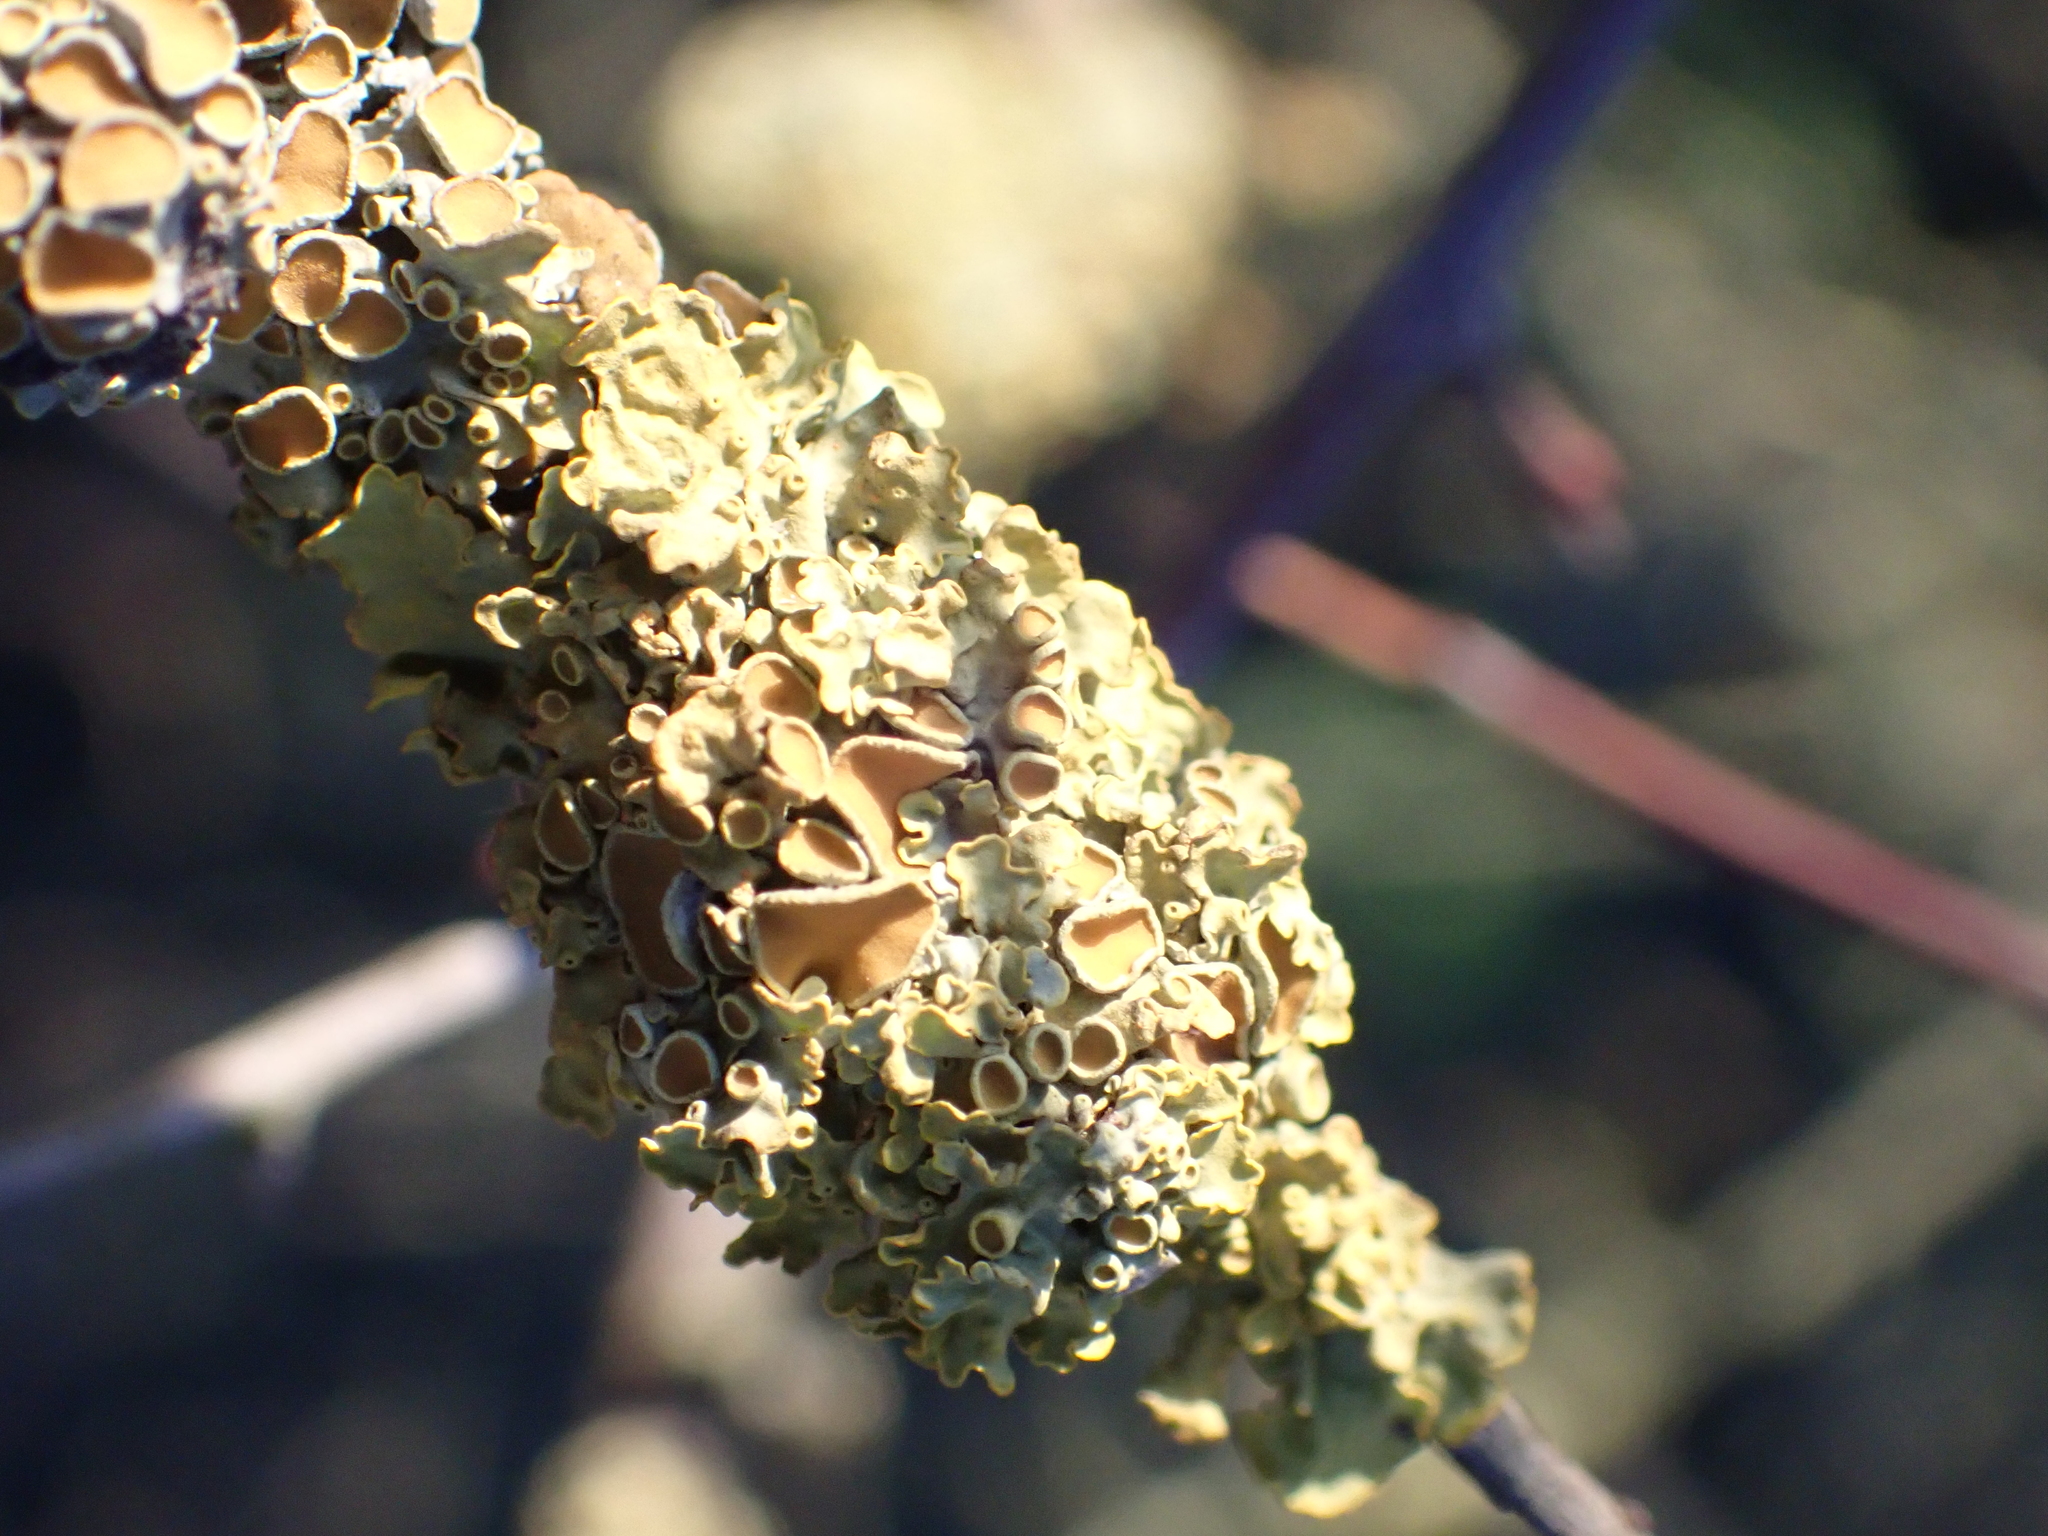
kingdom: Fungi
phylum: Ascomycota
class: Lecanoromycetes
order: Teloschistales
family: Teloschistaceae
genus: Xanthoria
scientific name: Xanthoria parietina
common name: Common orange lichen
